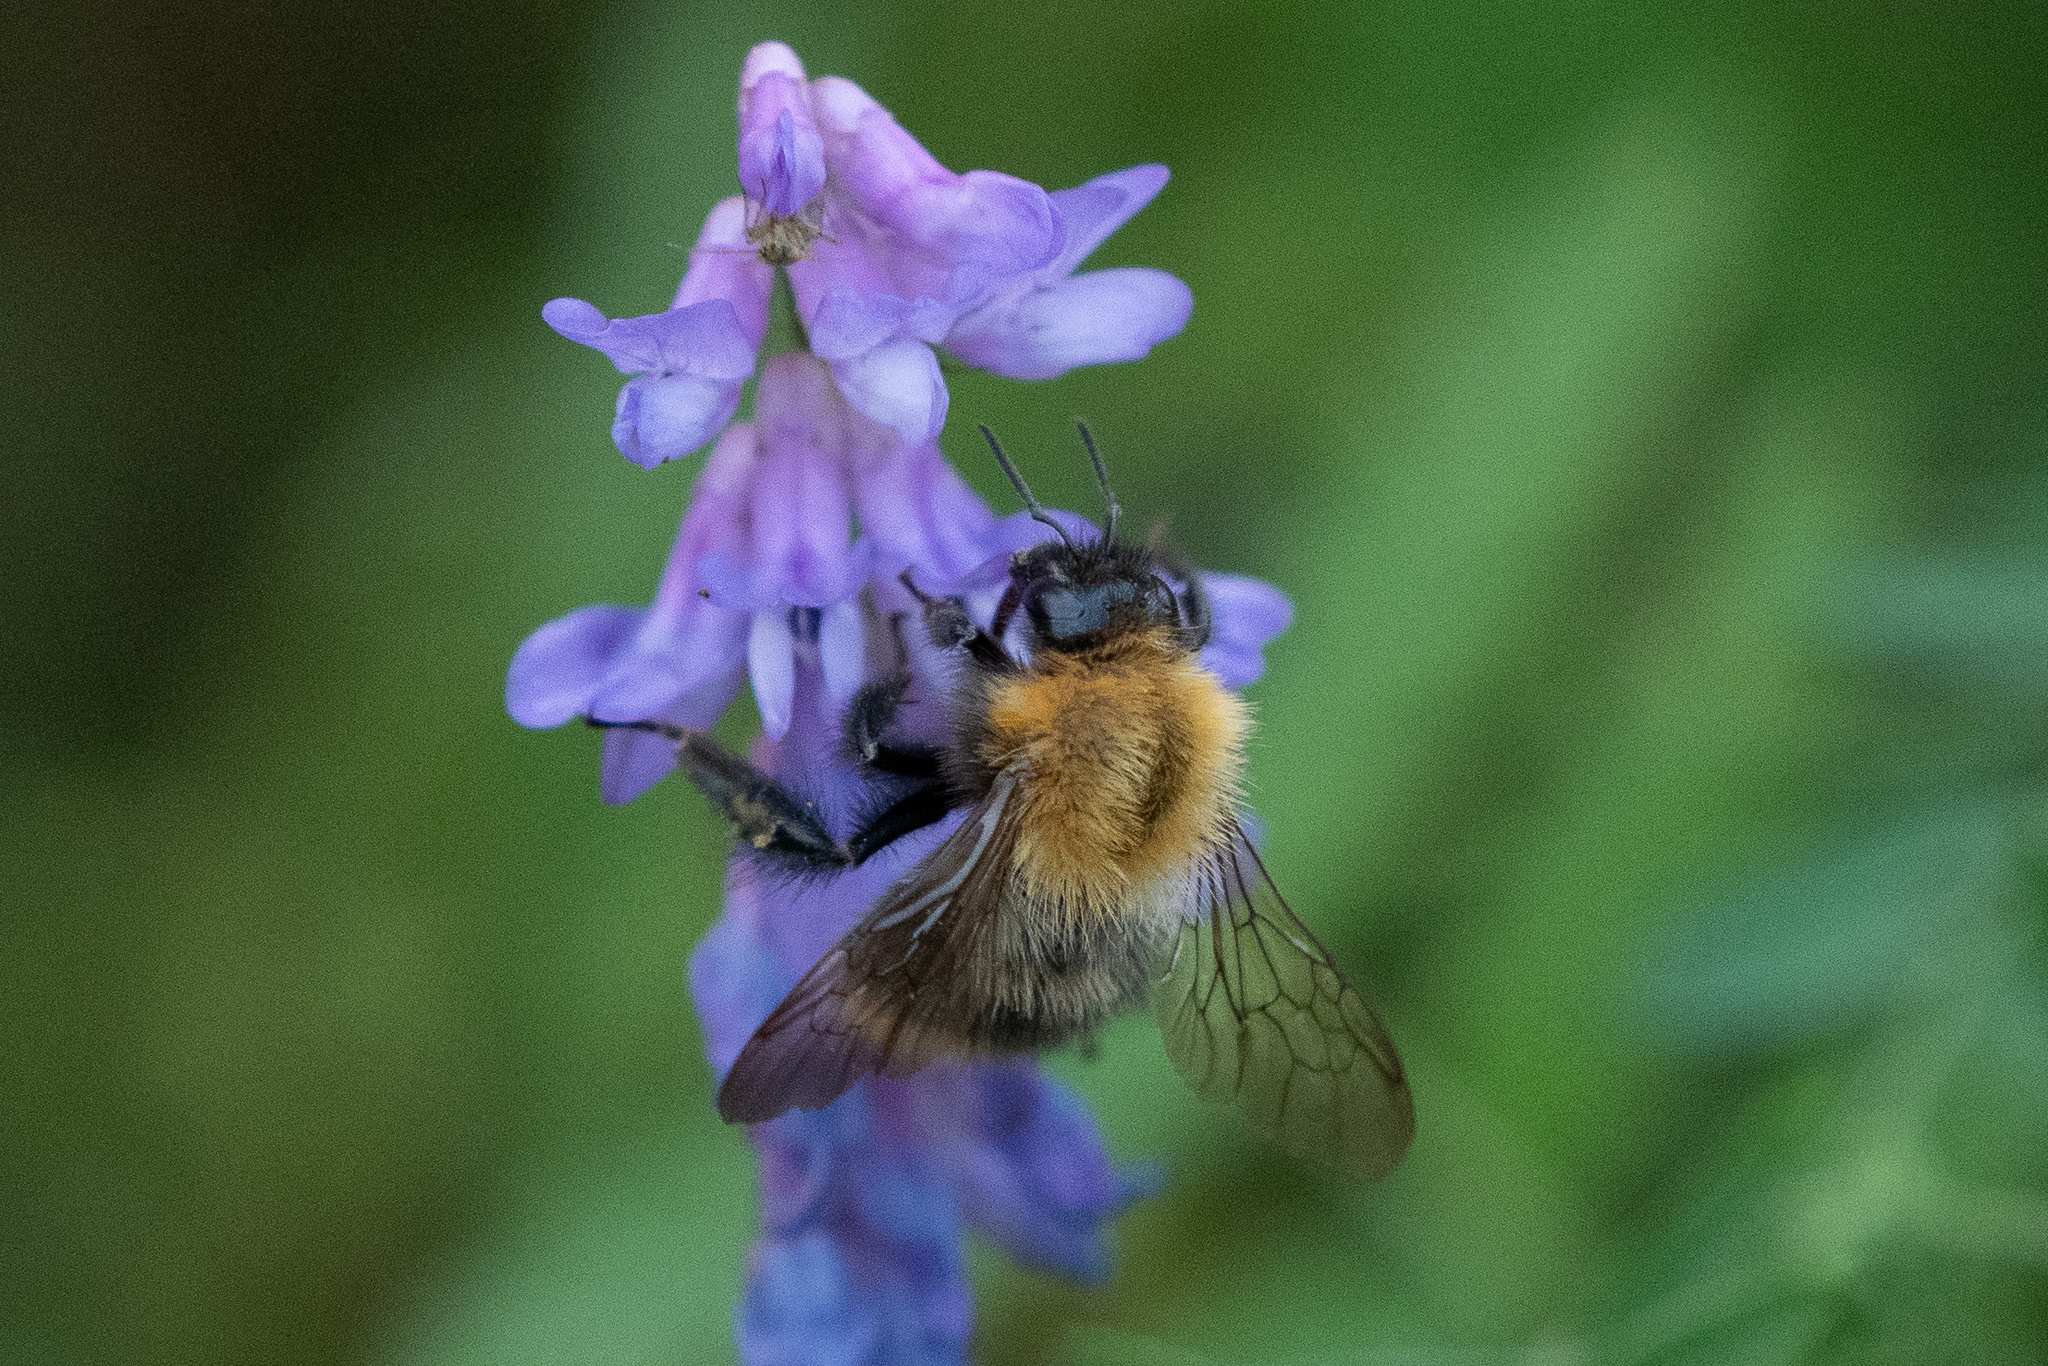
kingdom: Animalia
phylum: Arthropoda
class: Insecta
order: Hymenoptera
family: Apidae
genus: Bombus
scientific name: Bombus pascuorum
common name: Common carder bee
